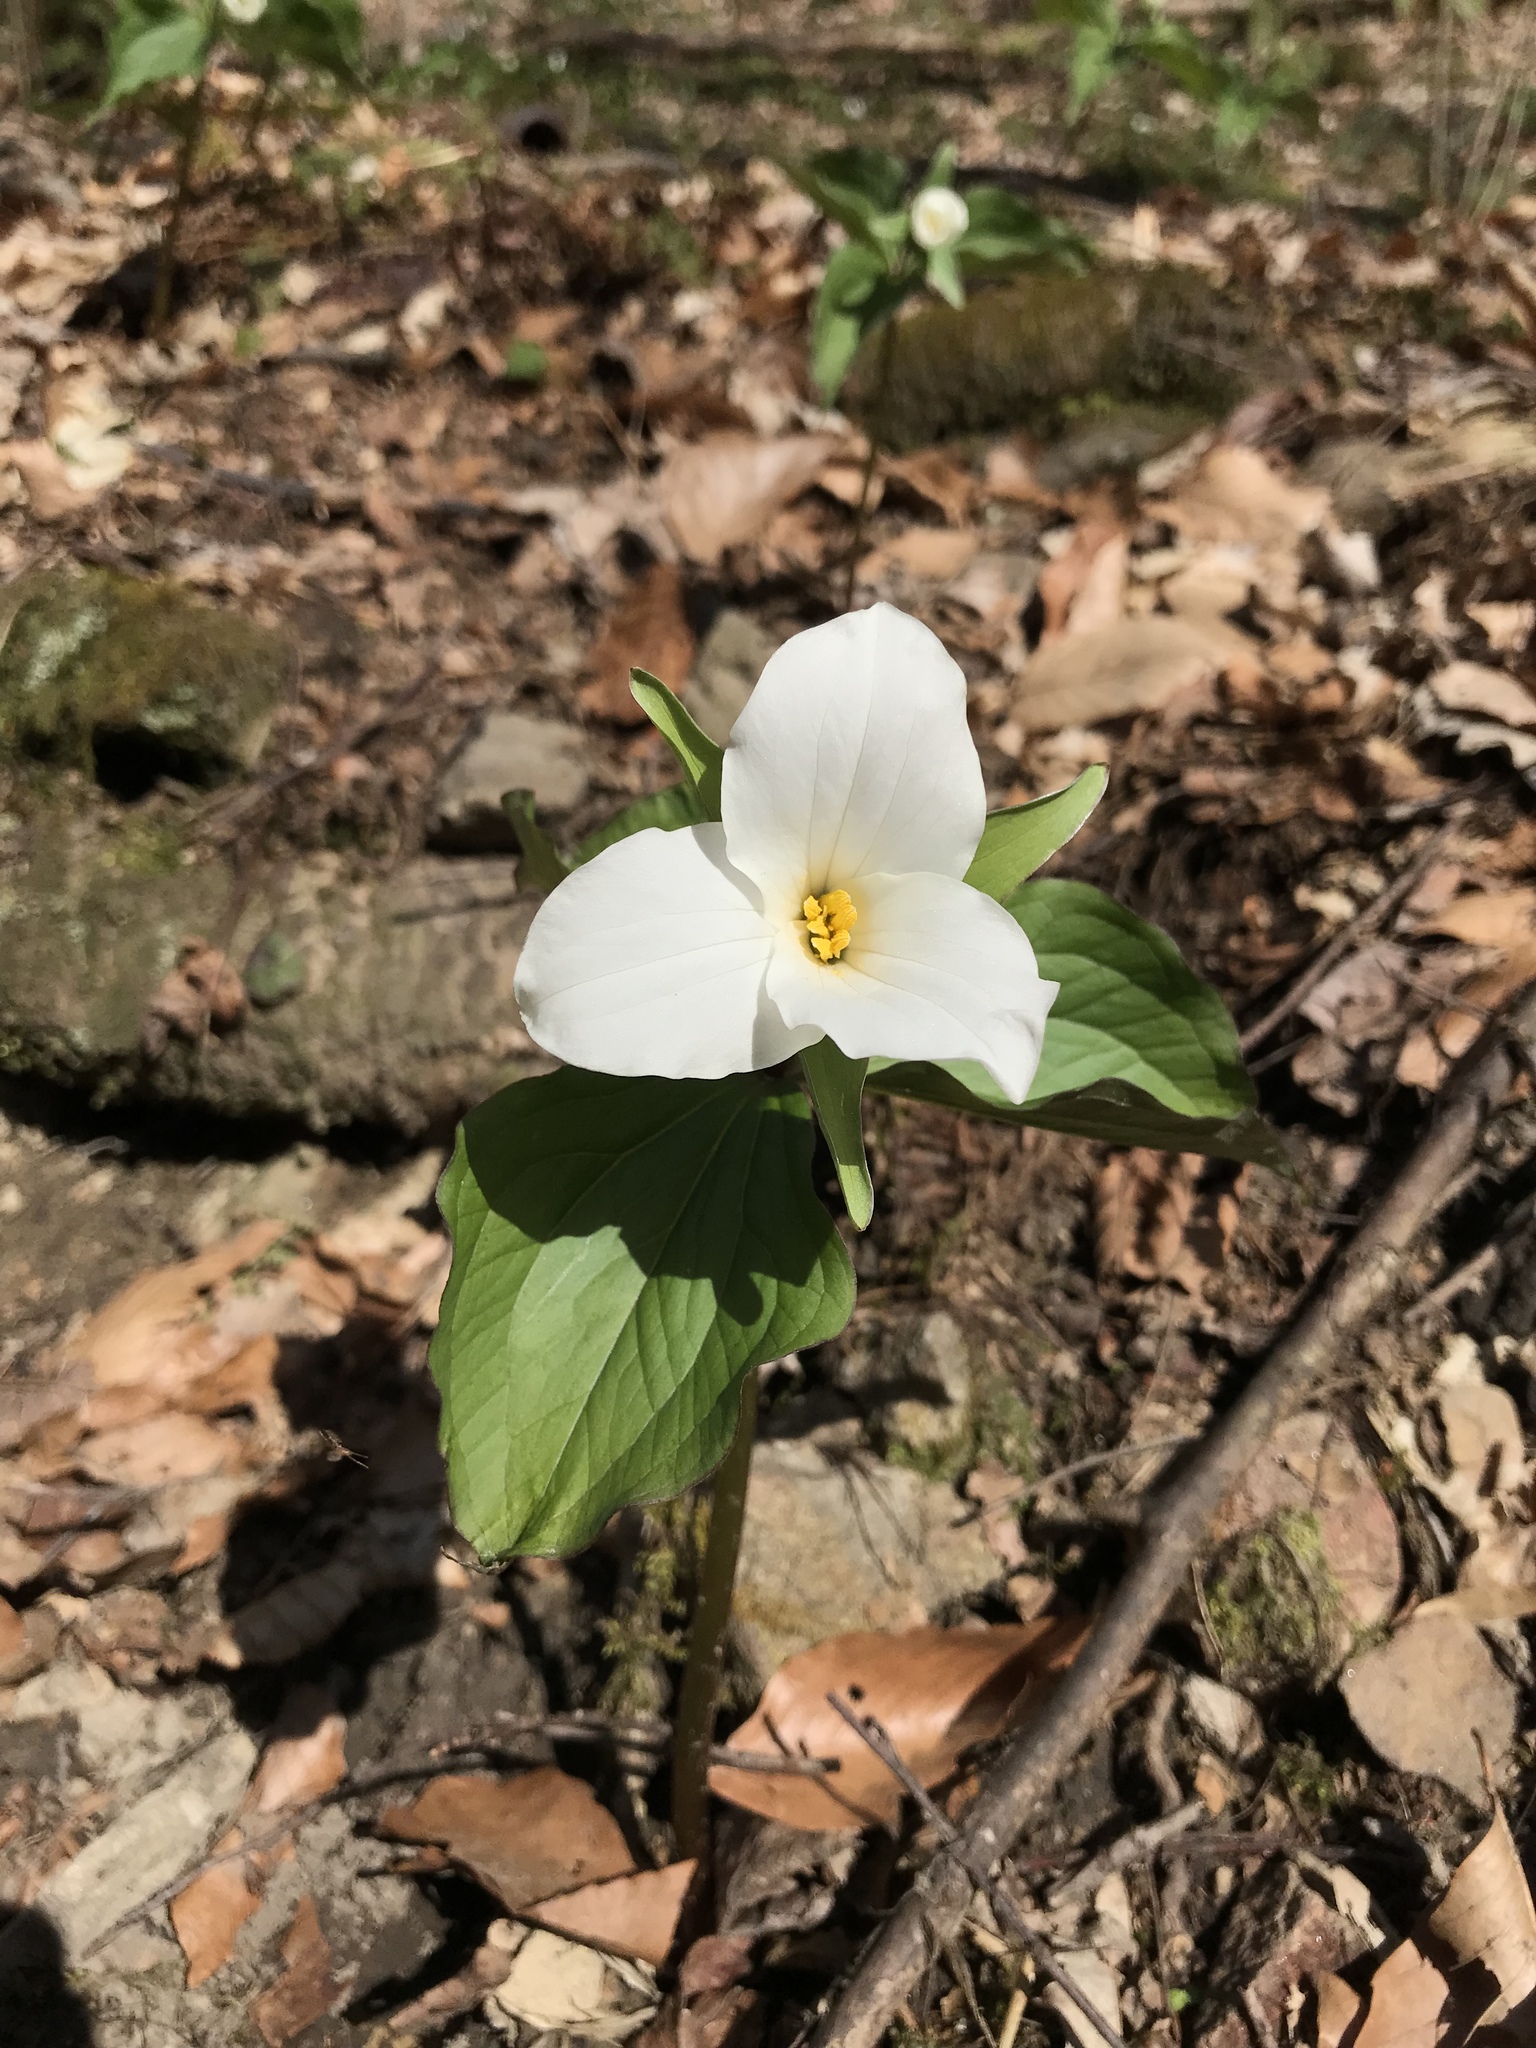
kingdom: Plantae
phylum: Tracheophyta
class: Liliopsida
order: Liliales
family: Melanthiaceae
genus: Trillium
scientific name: Trillium grandiflorum
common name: Great white trillium
